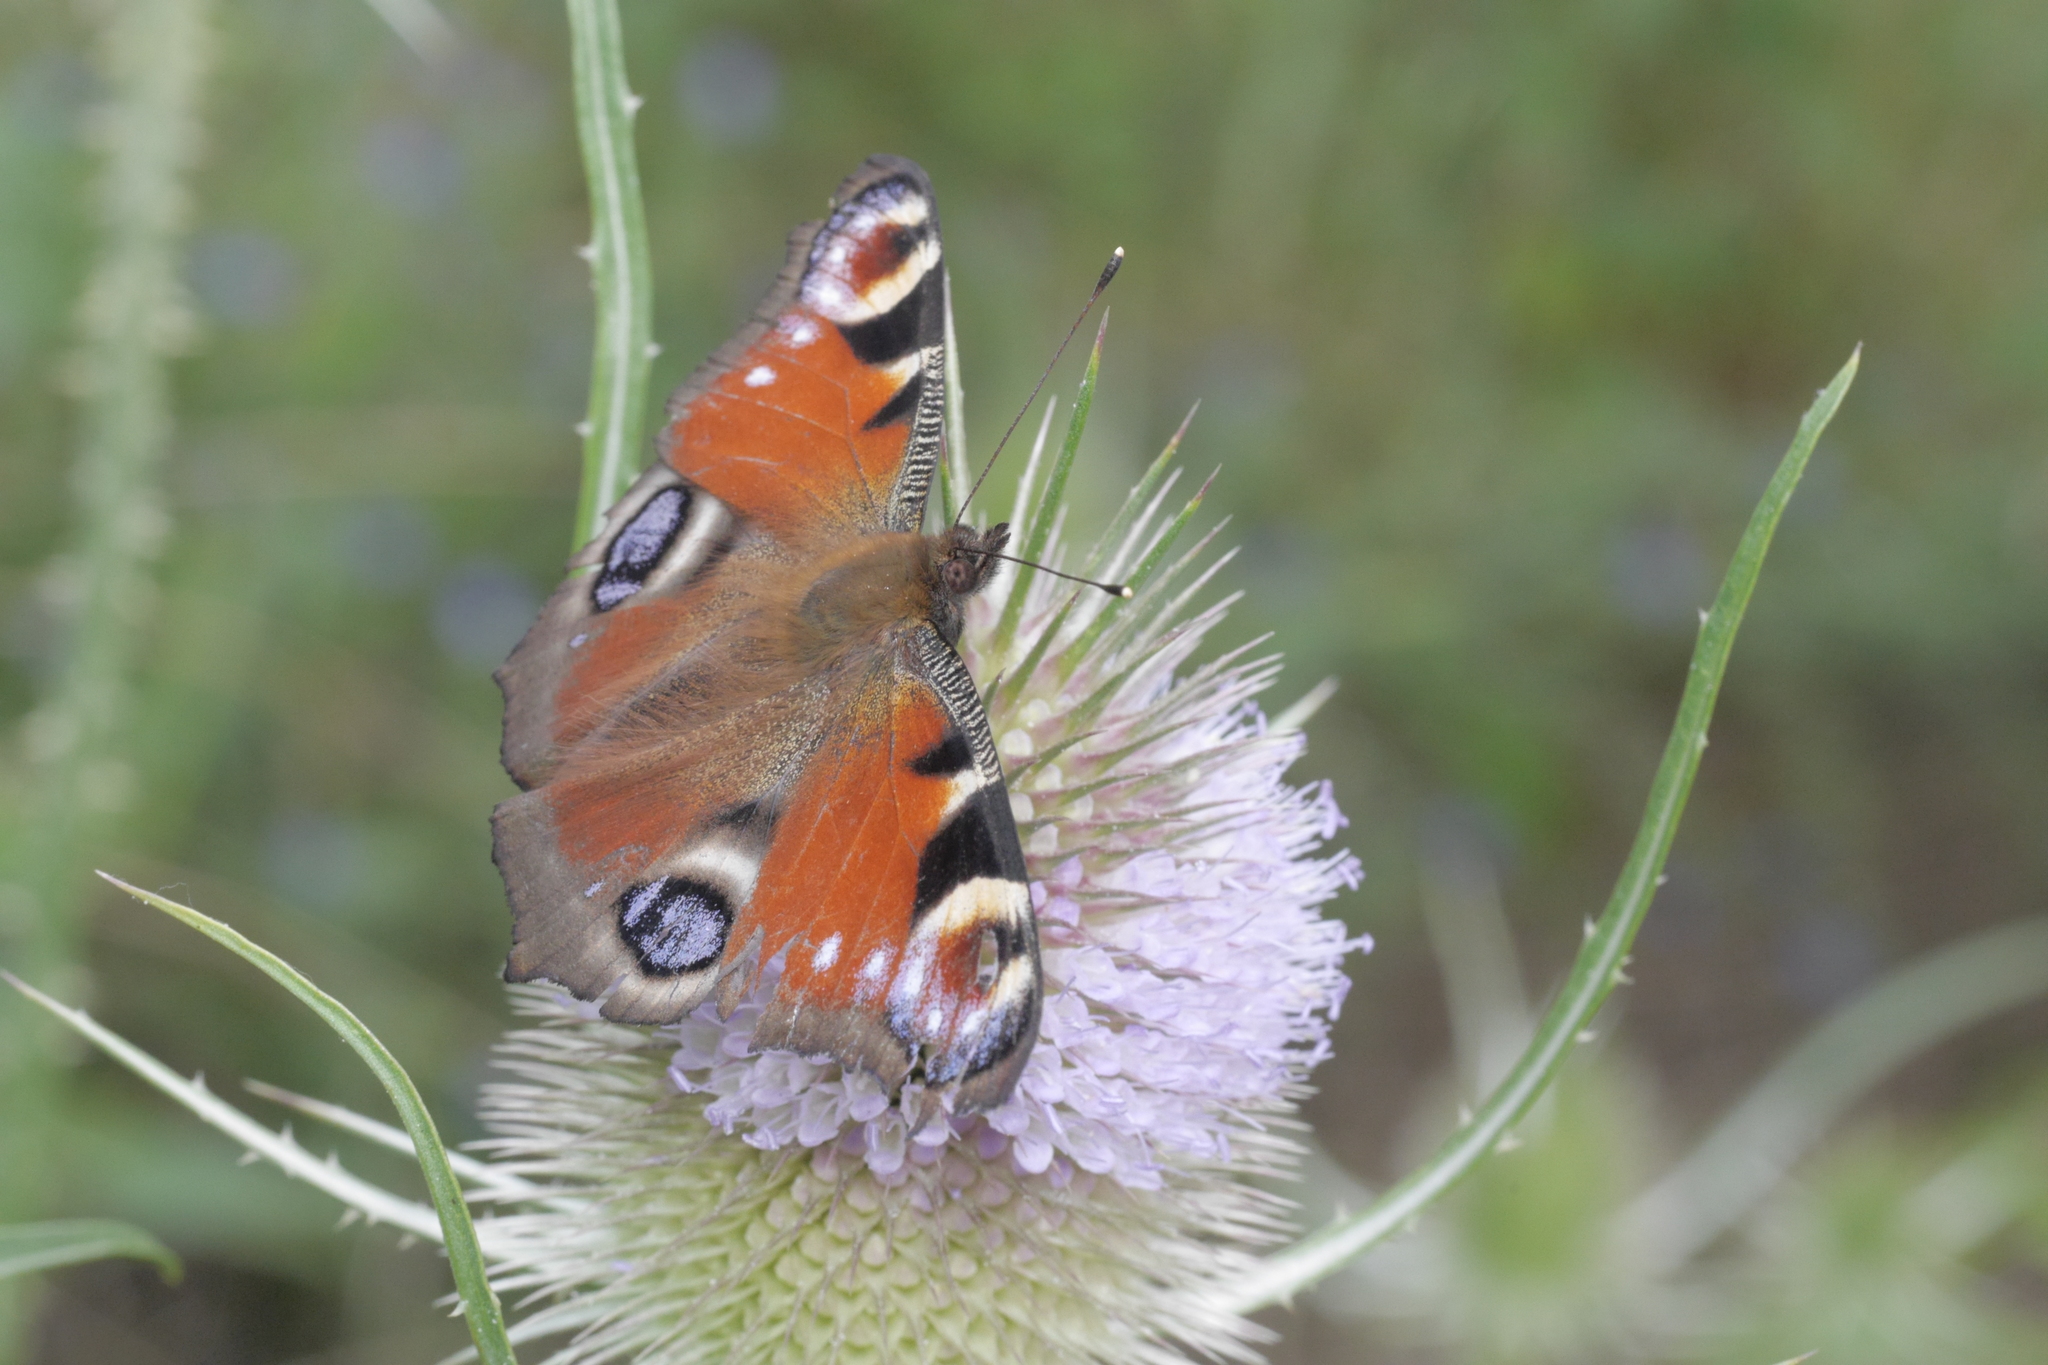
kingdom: Animalia
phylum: Arthropoda
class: Insecta
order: Lepidoptera
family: Nymphalidae
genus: Aglais
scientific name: Aglais io
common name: Peacock
